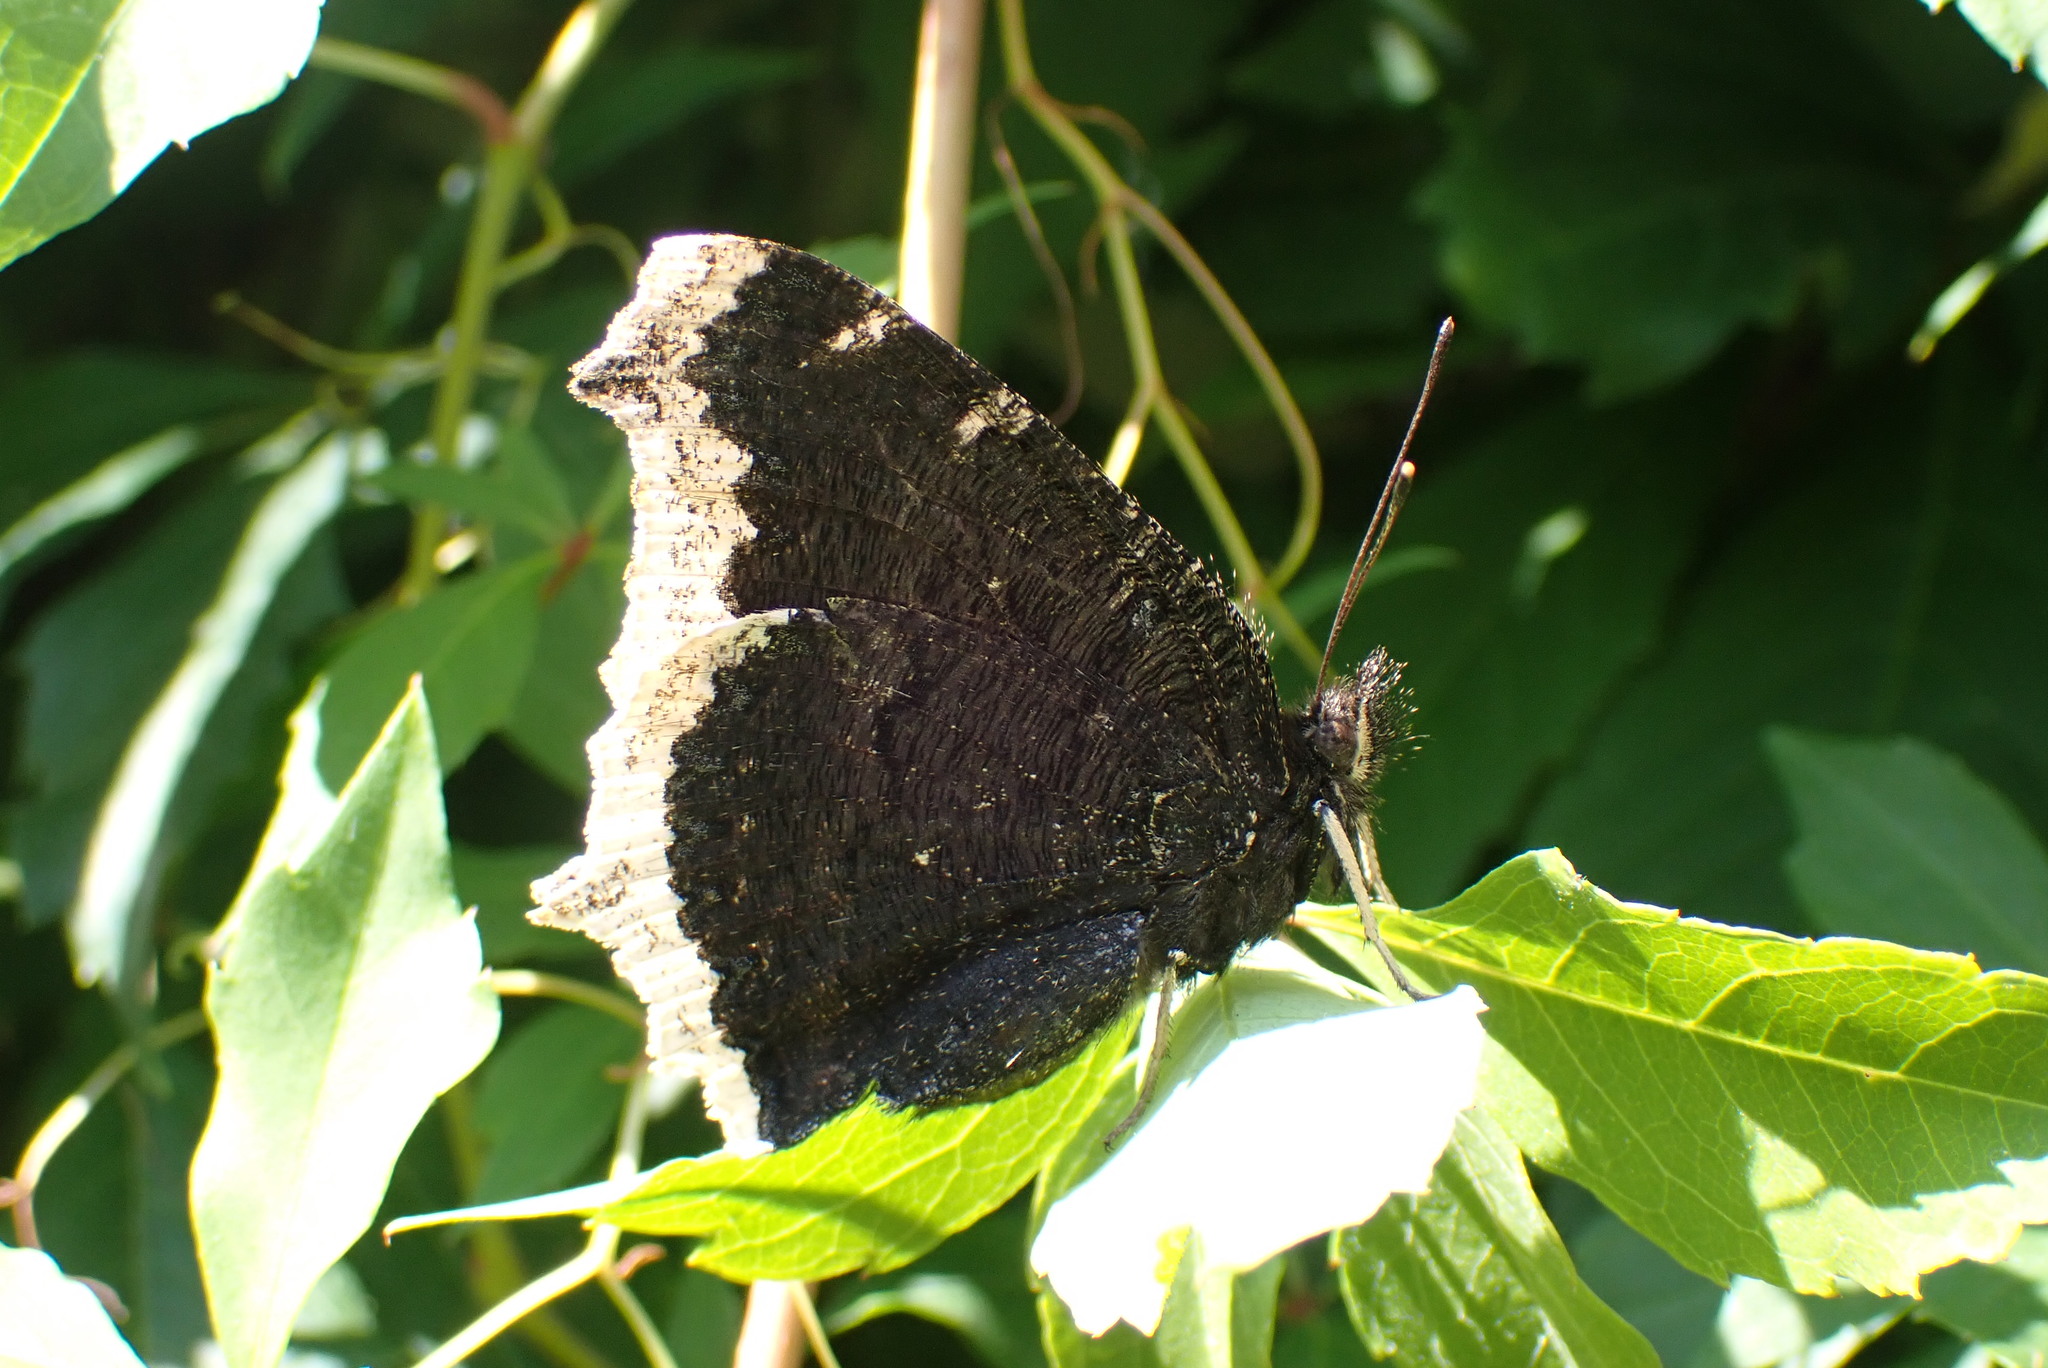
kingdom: Animalia
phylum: Arthropoda
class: Insecta
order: Lepidoptera
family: Nymphalidae
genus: Nymphalis
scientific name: Nymphalis antiopa
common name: Camberwell beauty
